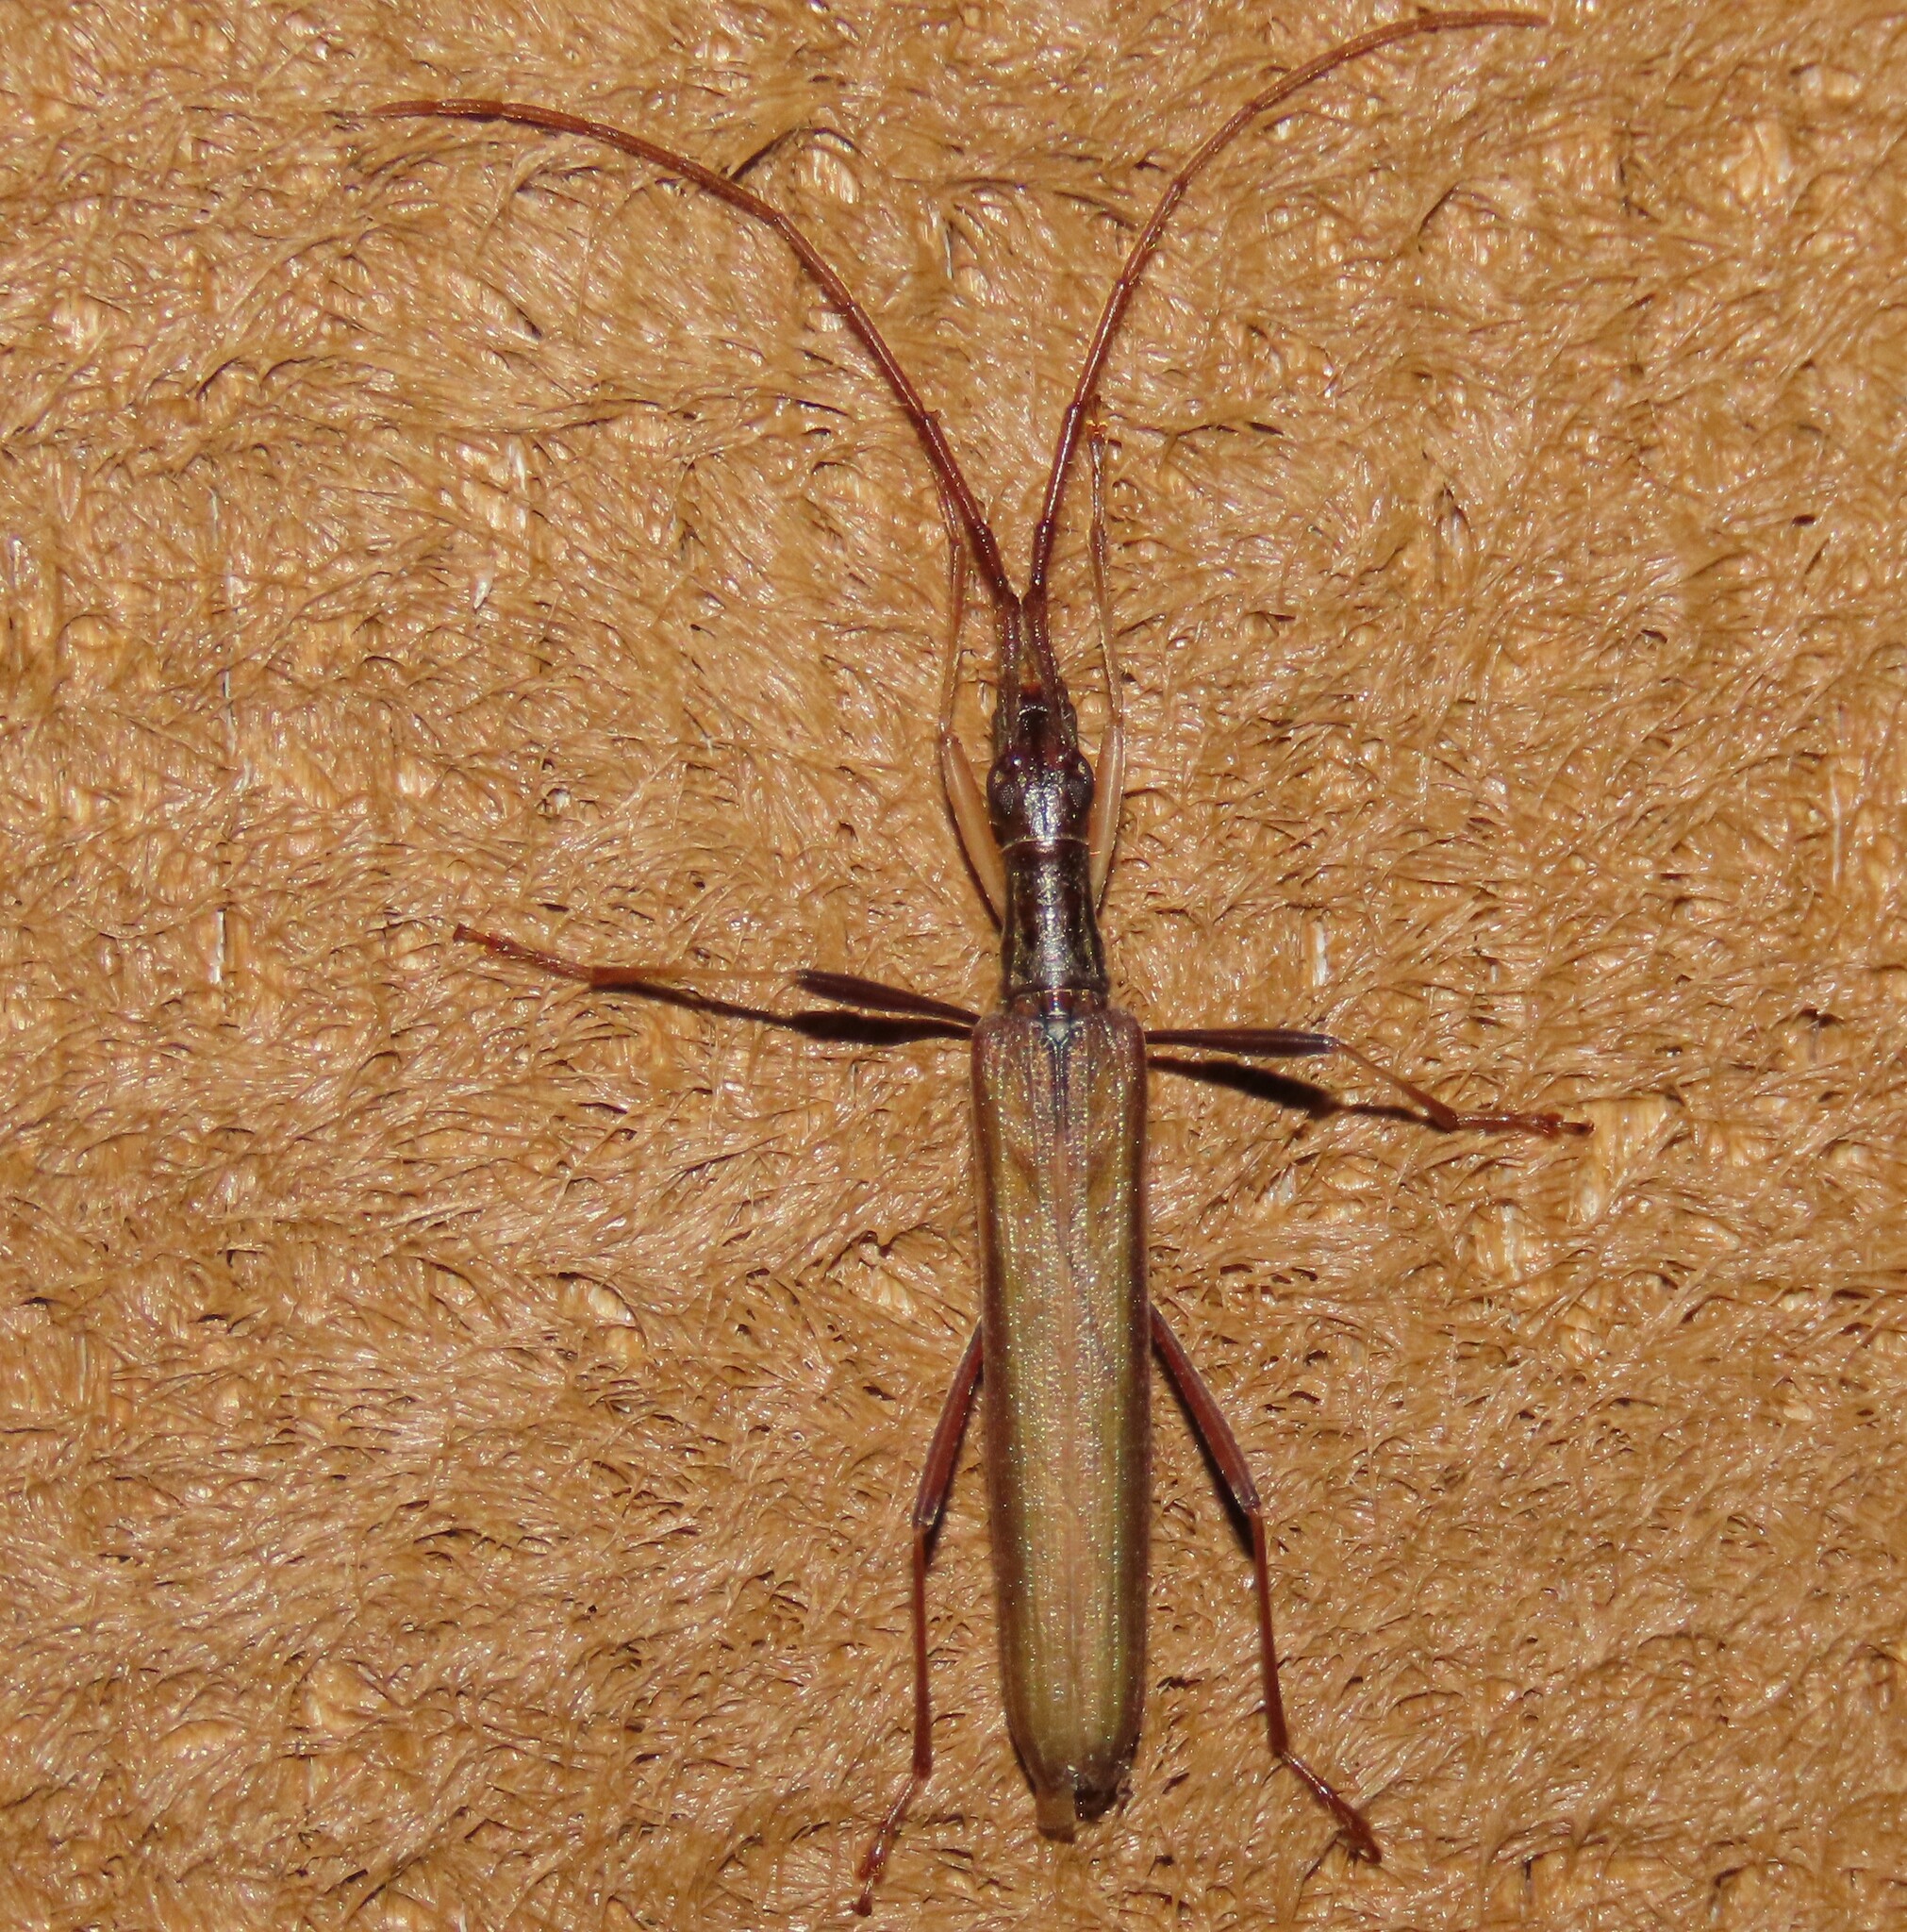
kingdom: Animalia
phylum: Arthropoda
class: Insecta
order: Coleoptera
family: Cerambycidae
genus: Stenopotes
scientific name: Stenopotes pallidus
